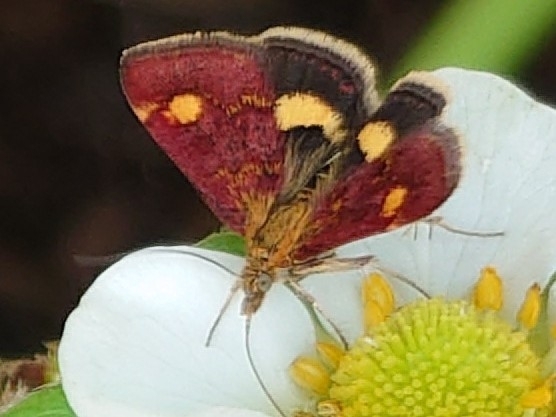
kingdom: Animalia
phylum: Arthropoda
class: Insecta
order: Lepidoptera
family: Crambidae
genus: Pyrausta
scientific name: Pyrausta aurata
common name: Small purple & gold
